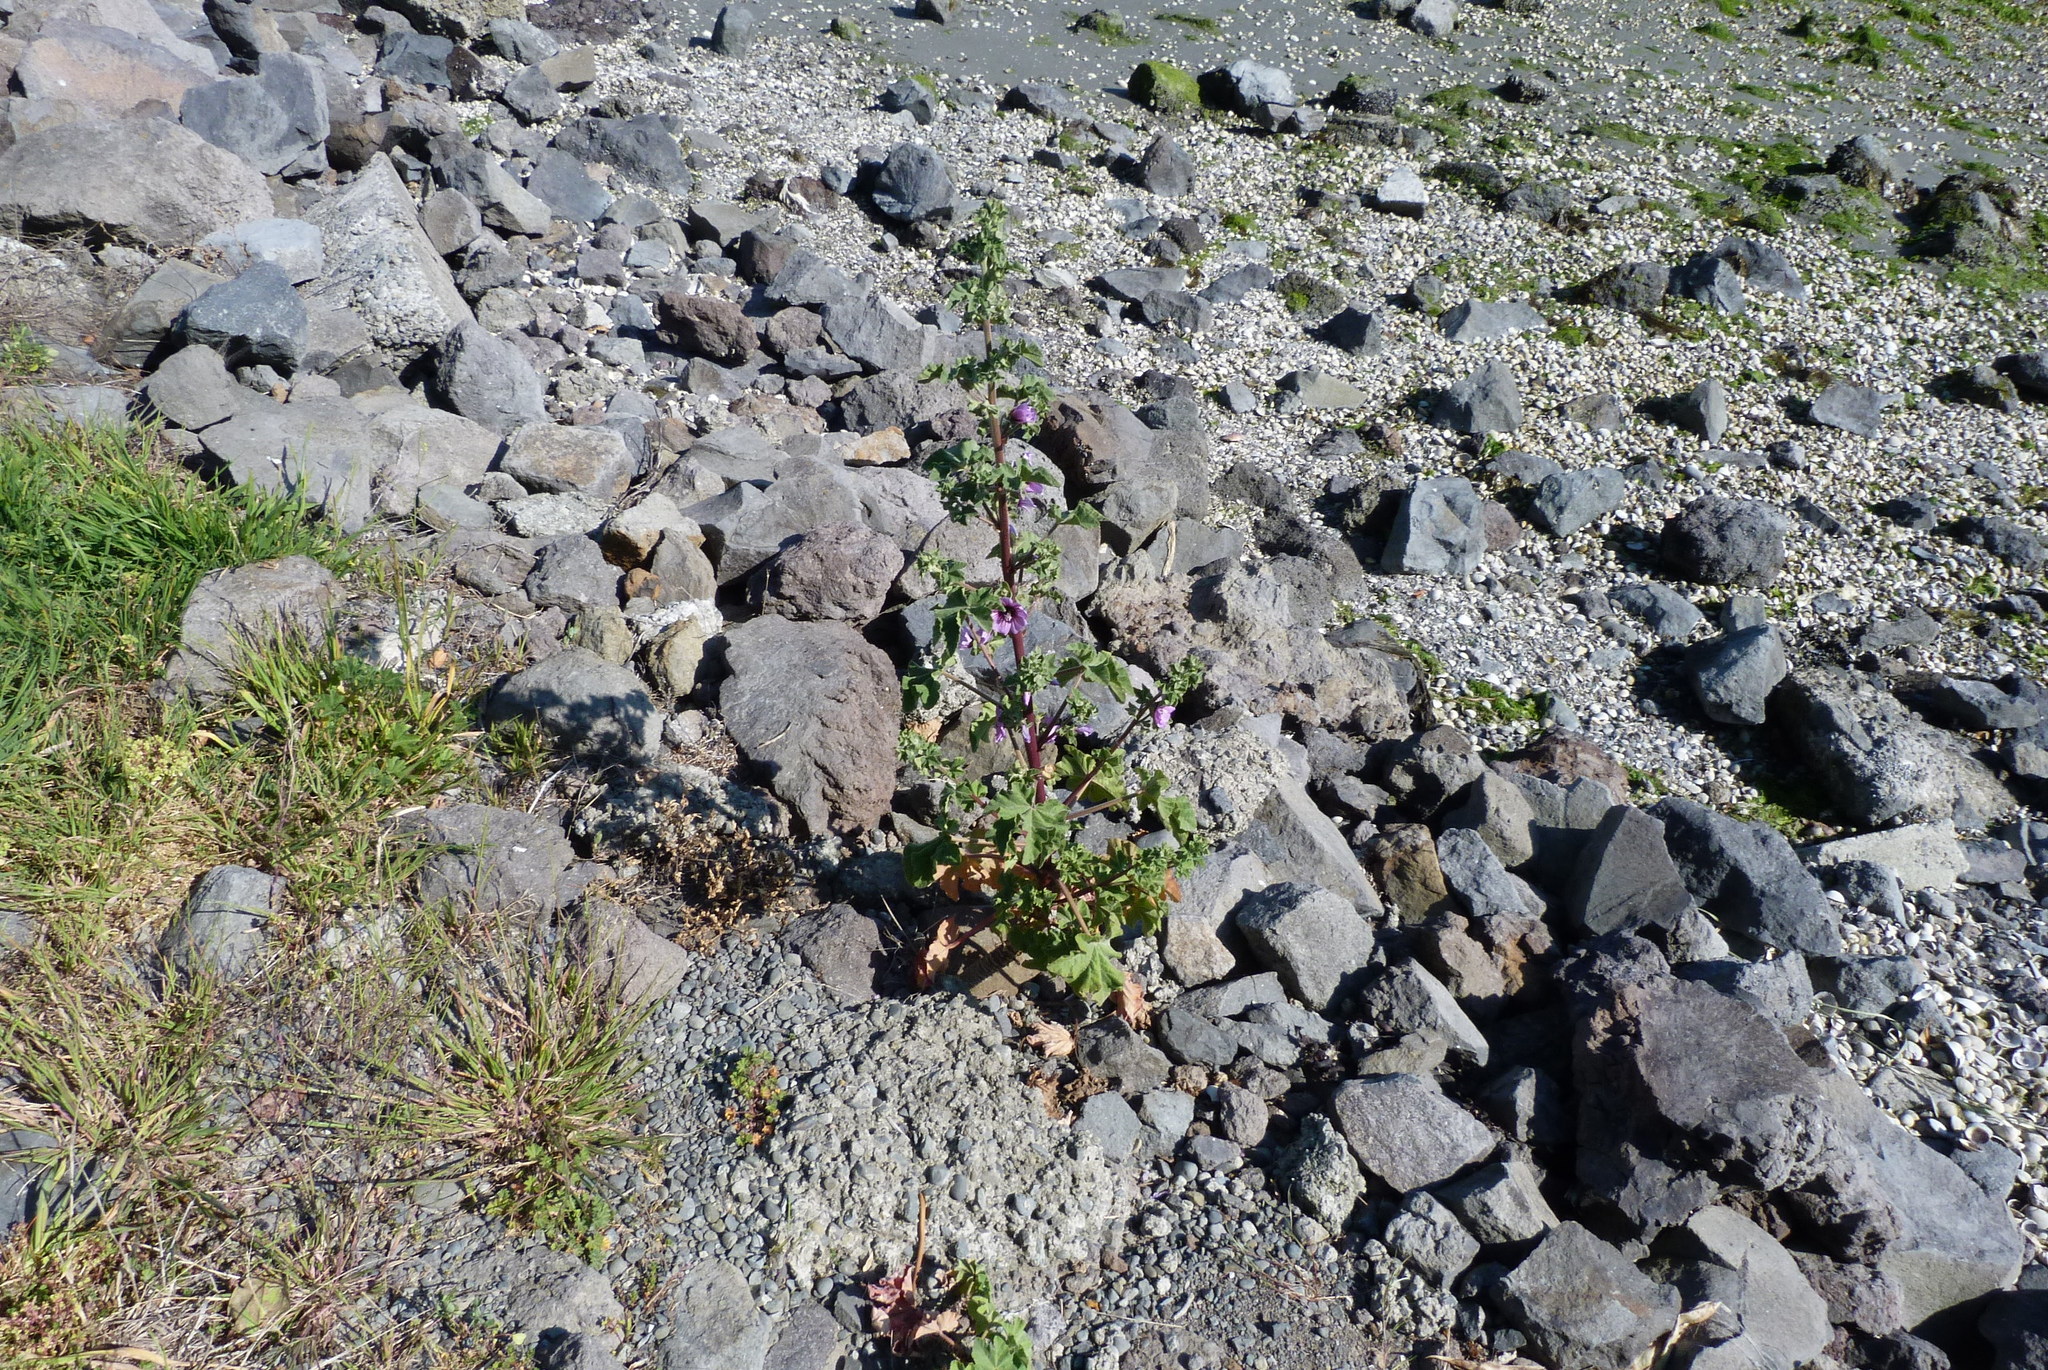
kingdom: Plantae
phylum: Tracheophyta
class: Magnoliopsida
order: Malvales
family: Malvaceae
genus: Malva
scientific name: Malva arborea
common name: Tree mallow
